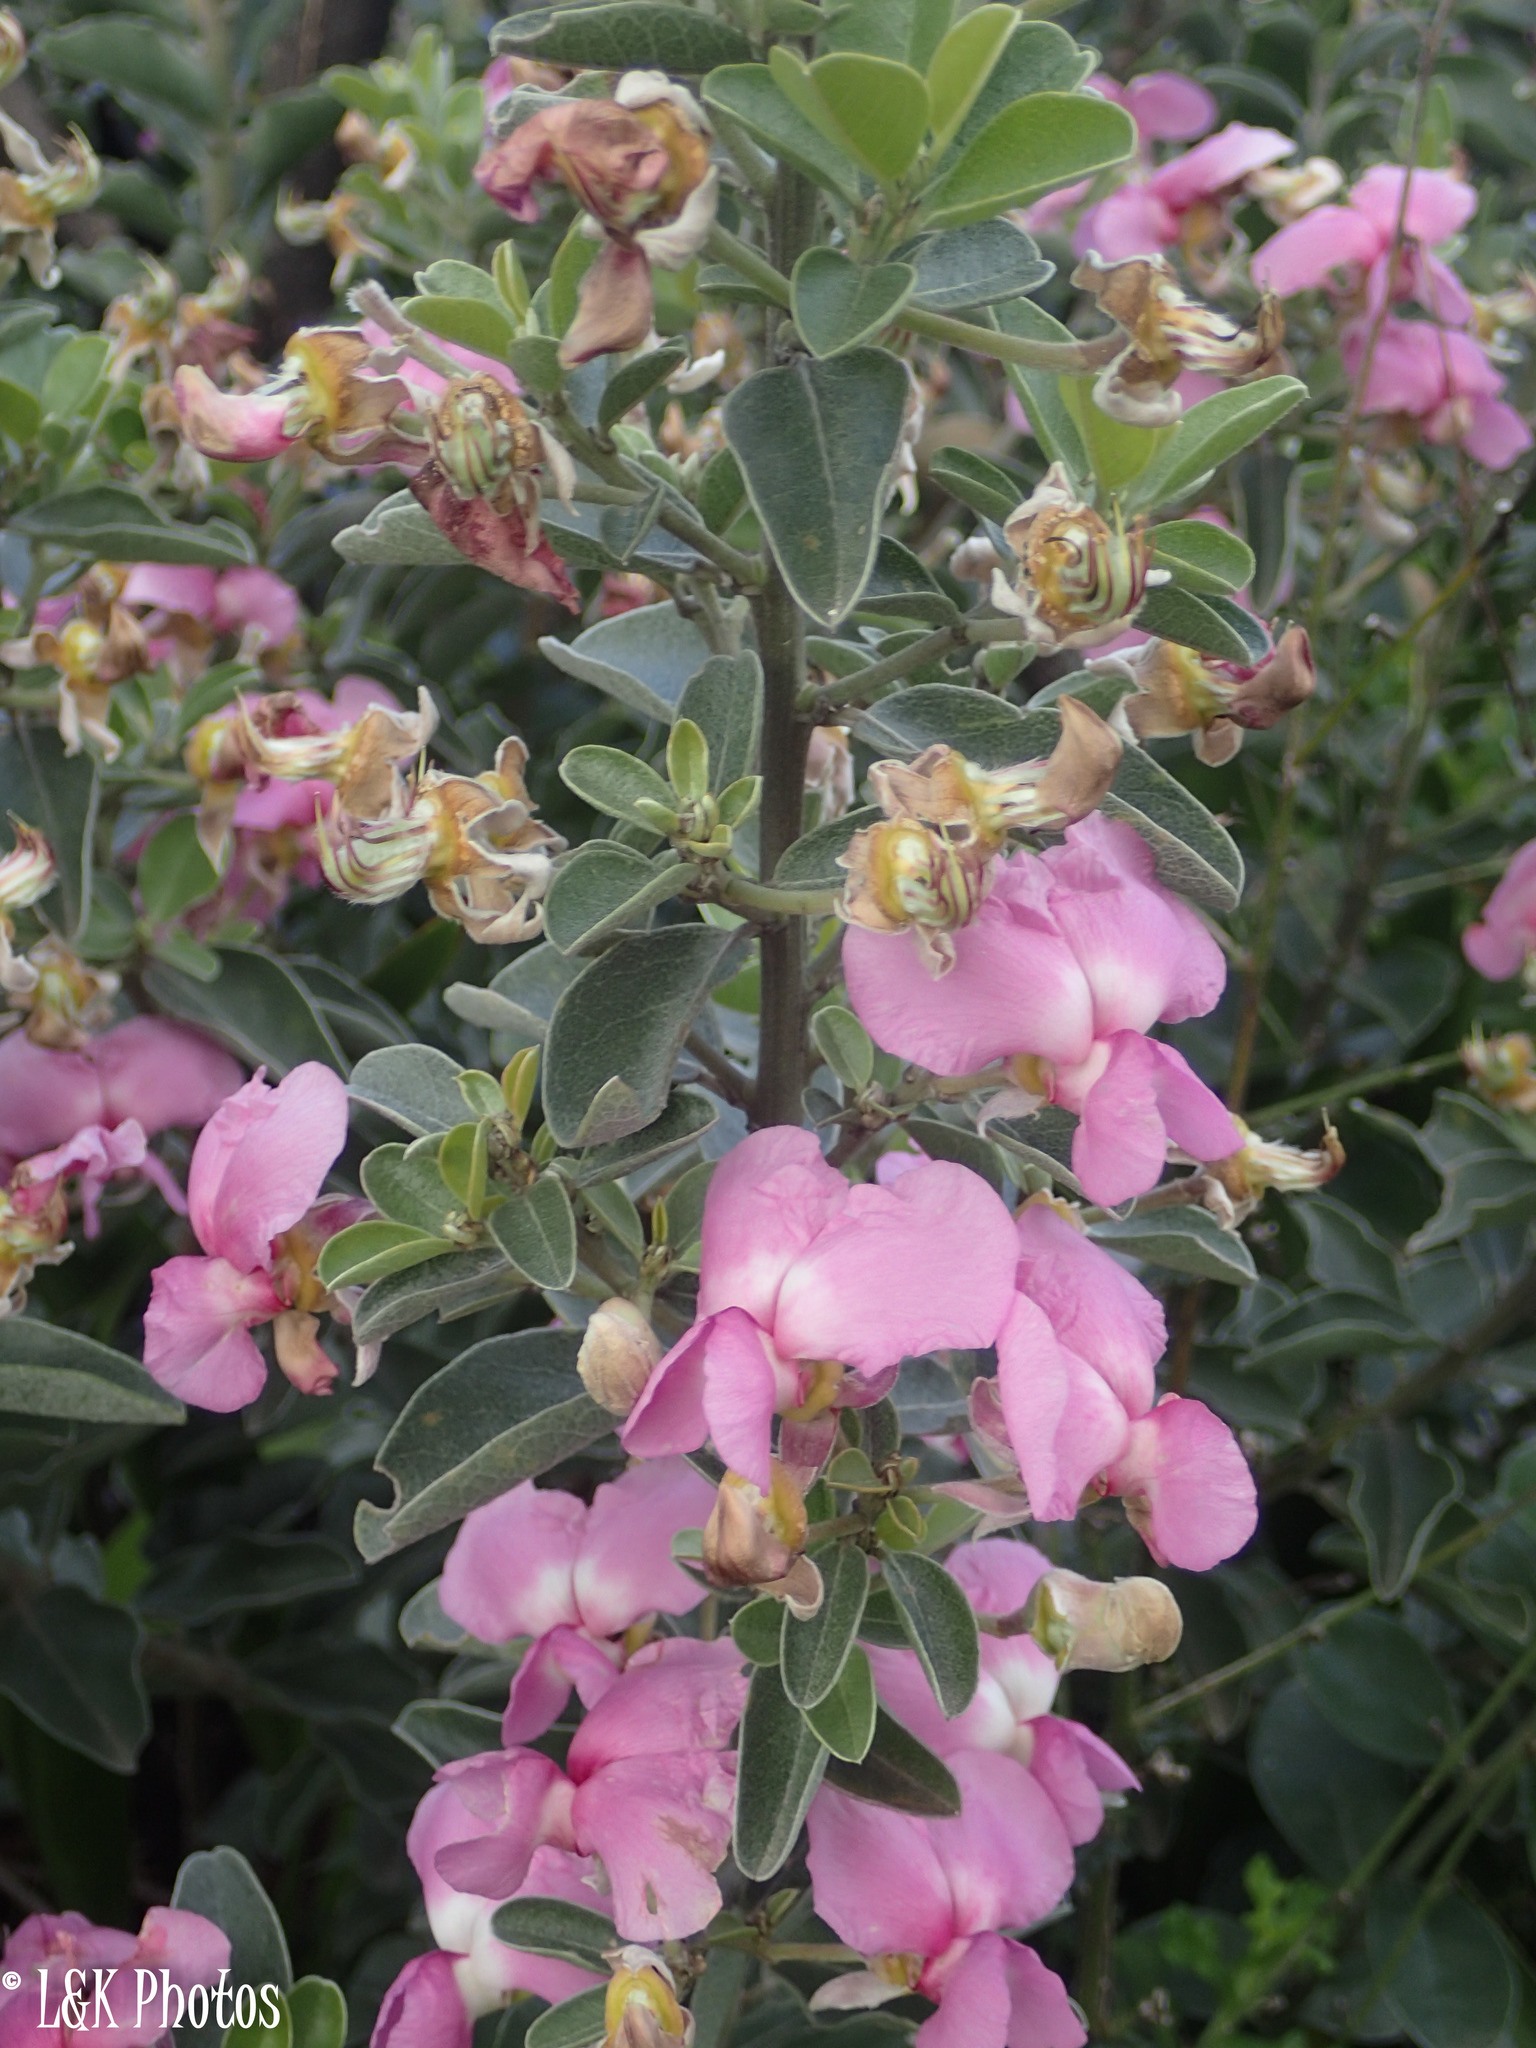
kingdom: Plantae
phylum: Tracheophyta
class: Magnoliopsida
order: Fabales
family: Fabaceae
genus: Dipogon
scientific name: Dipogon lignosus
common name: Okie bean
